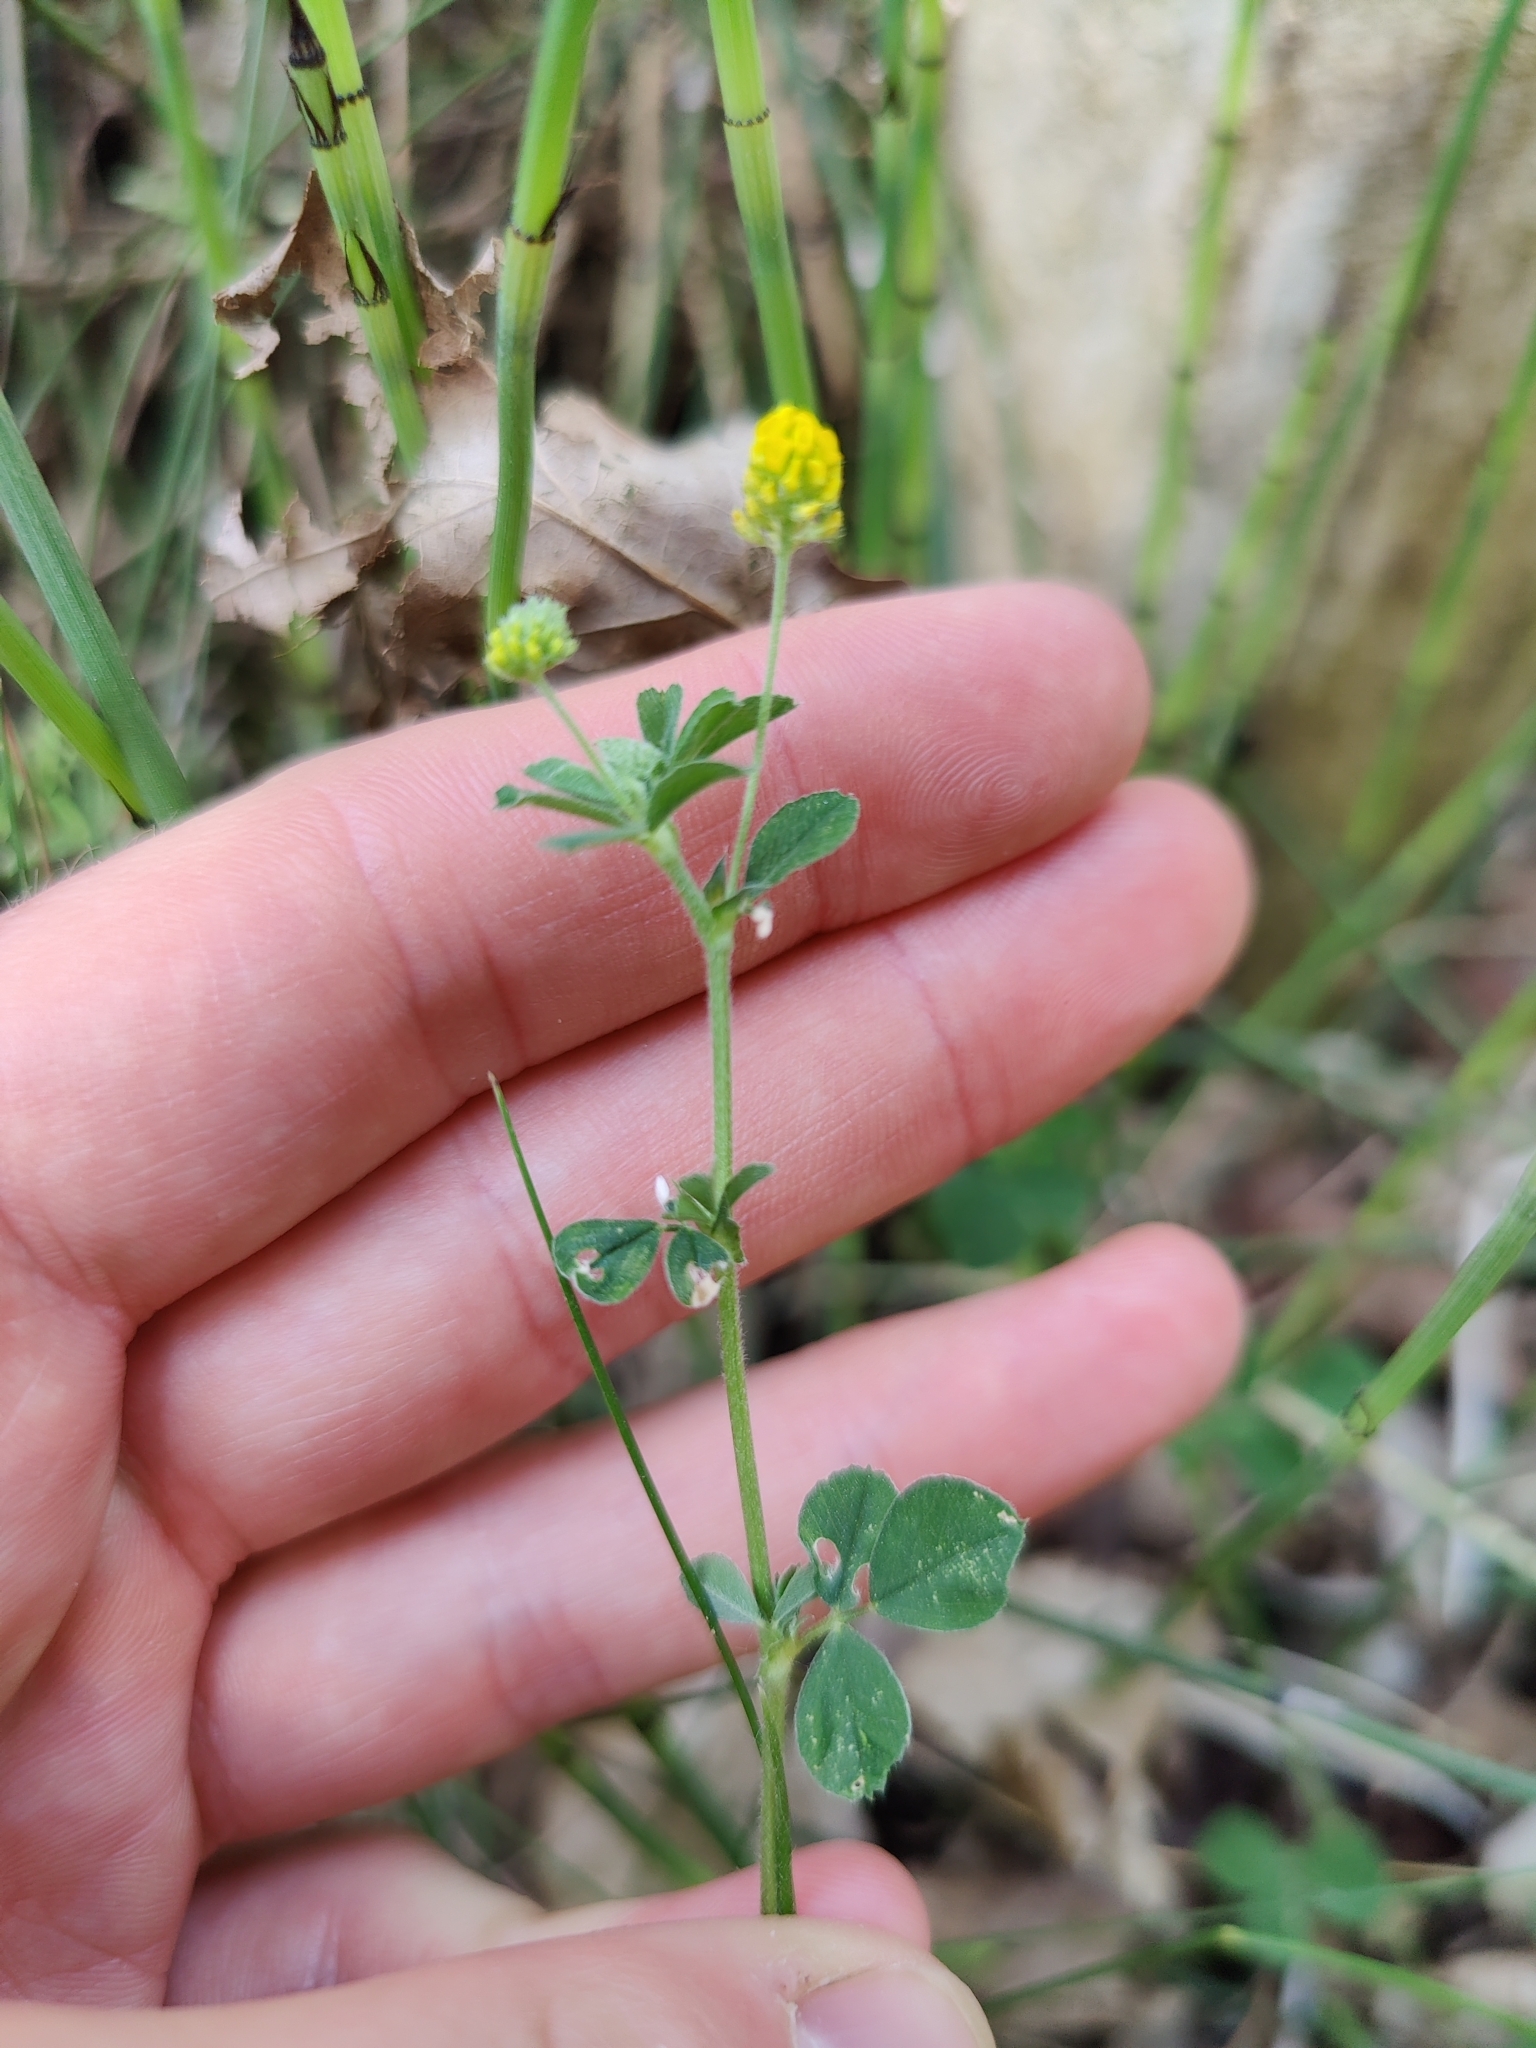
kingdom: Plantae
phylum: Tracheophyta
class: Magnoliopsida
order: Fabales
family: Fabaceae
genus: Medicago
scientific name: Medicago lupulina
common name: Black medick
